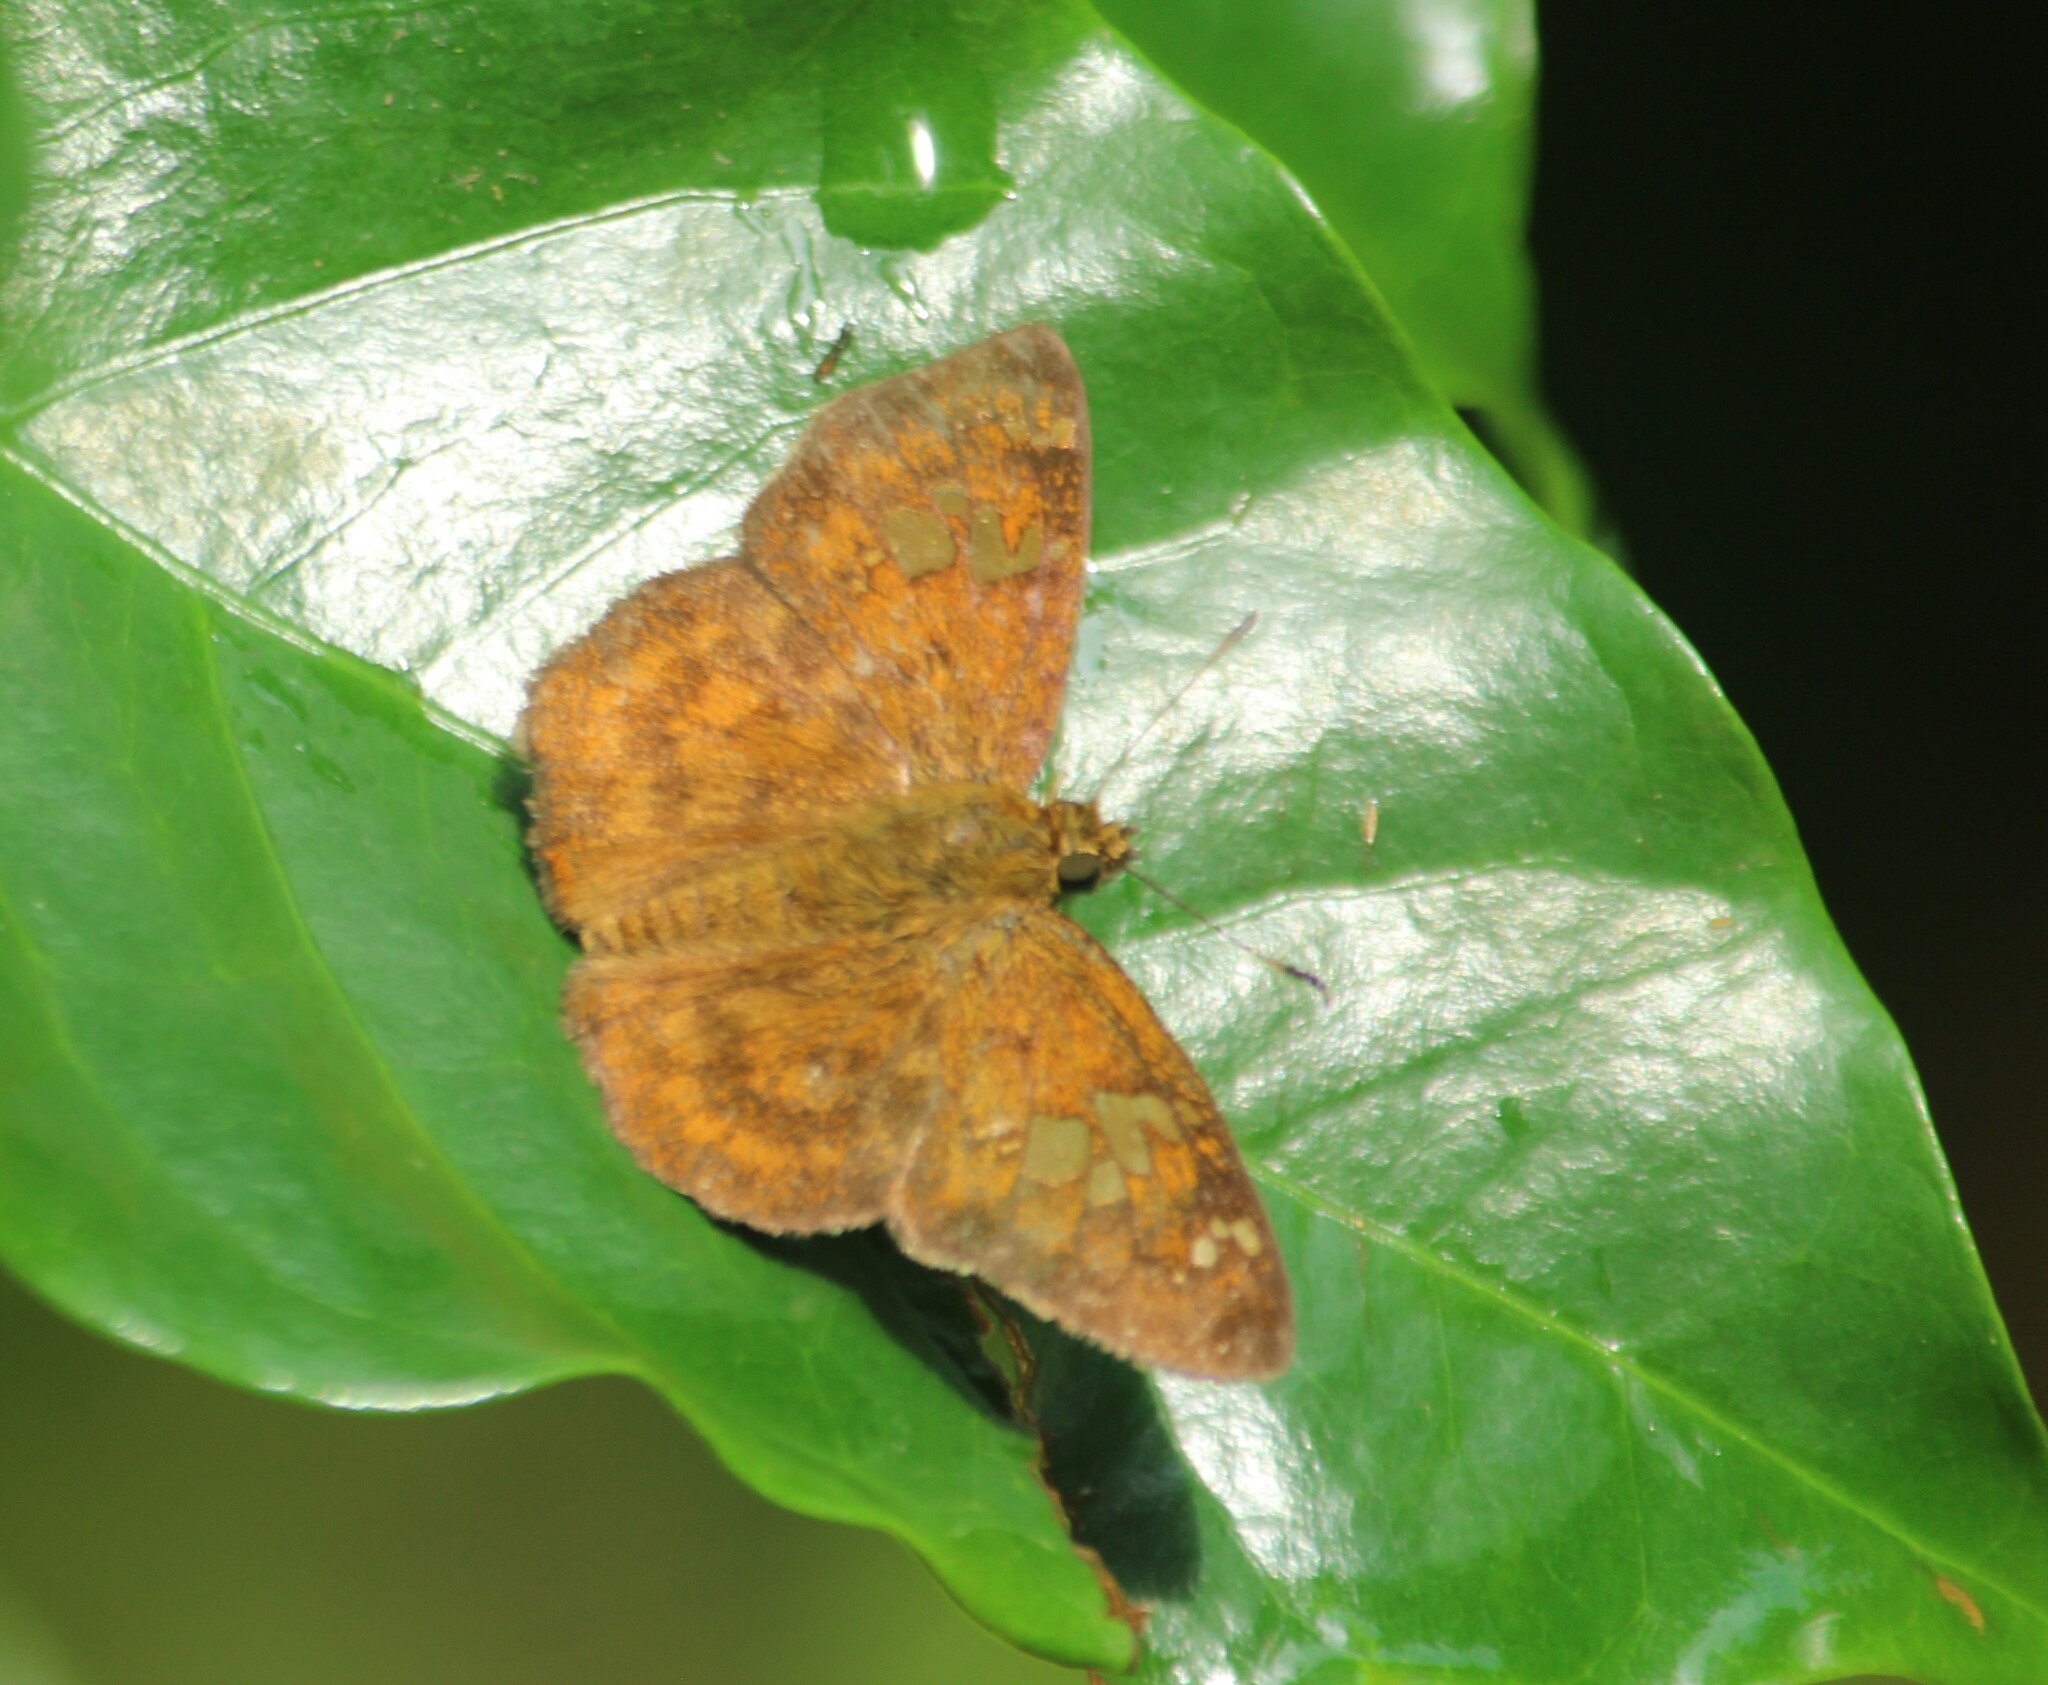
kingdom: Animalia
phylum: Arthropoda
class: Insecta
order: Lepidoptera
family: Hesperiidae
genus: Pseudocoladenia
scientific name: Pseudocoladenia dan
